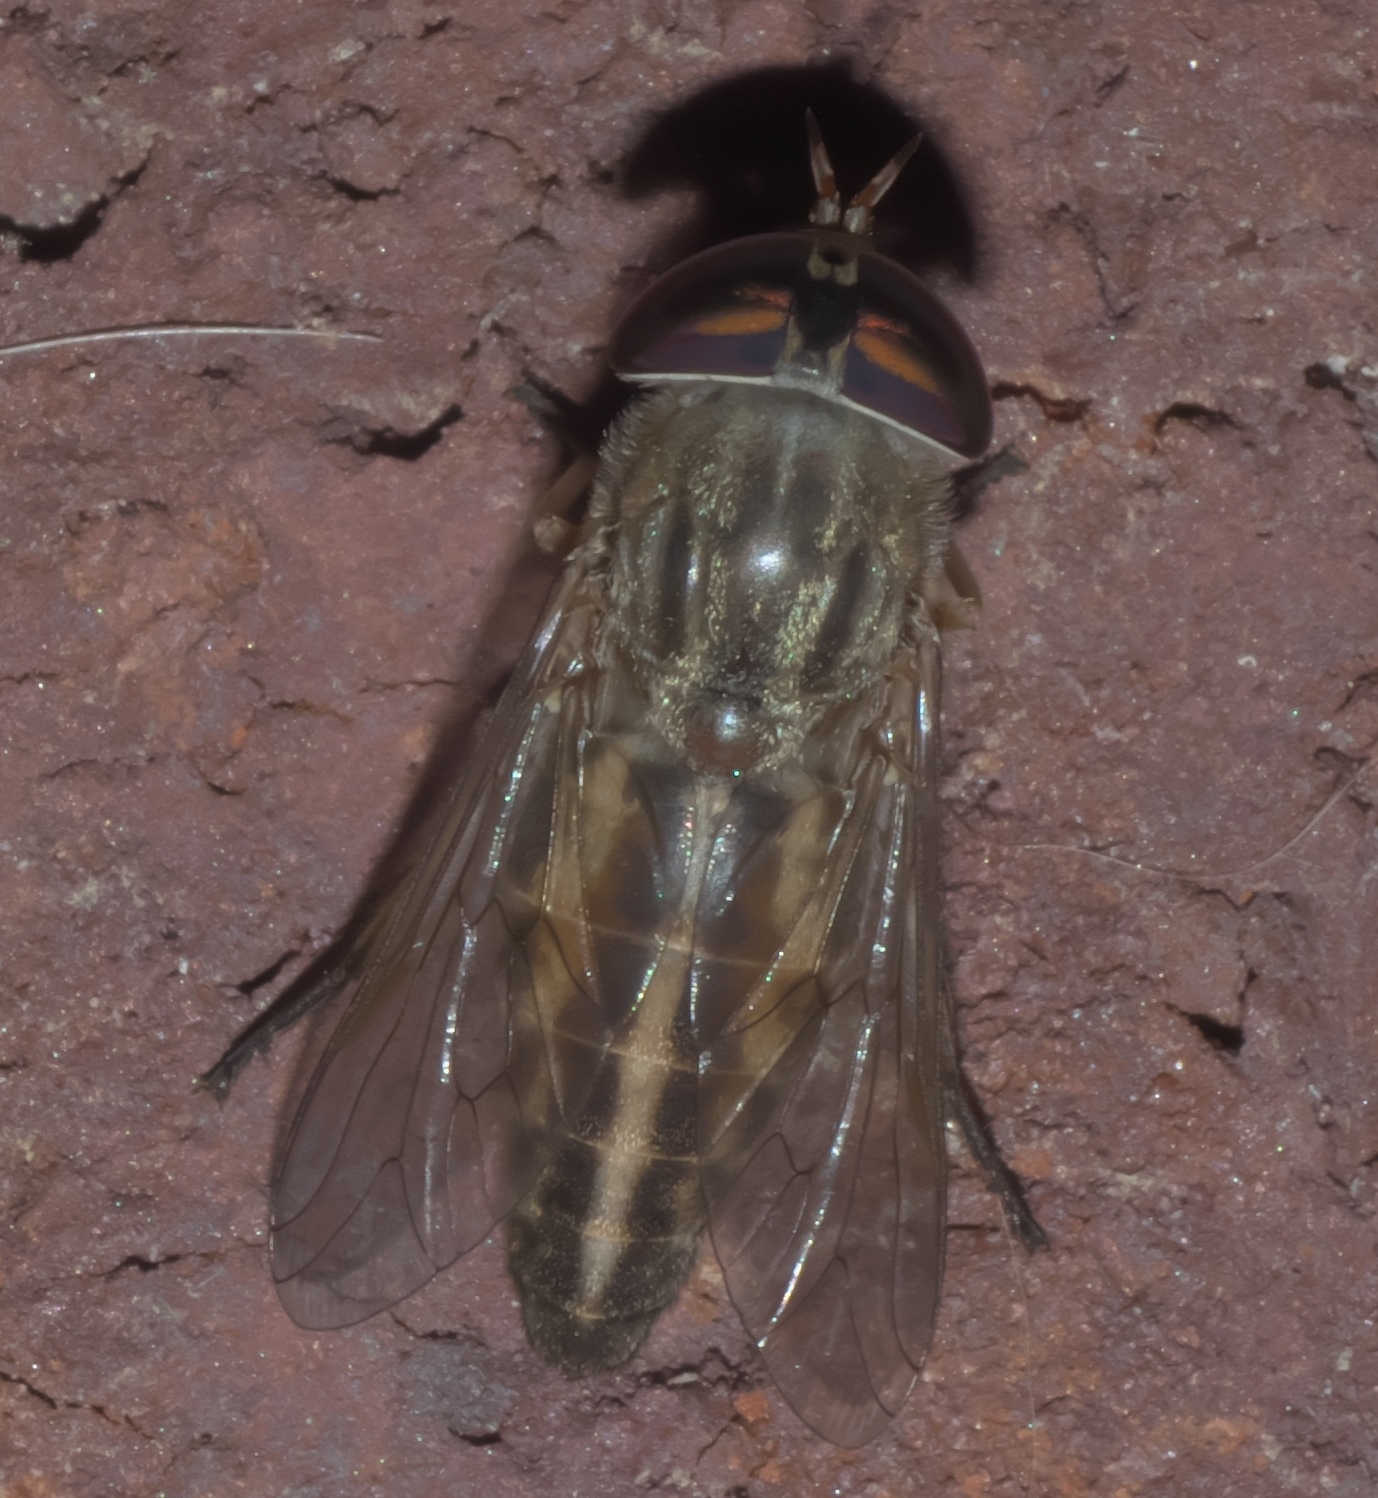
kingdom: Animalia
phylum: Arthropoda
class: Insecta
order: Diptera
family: Tabanidae
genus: Tabanus
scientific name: Tabanus subsimilis
